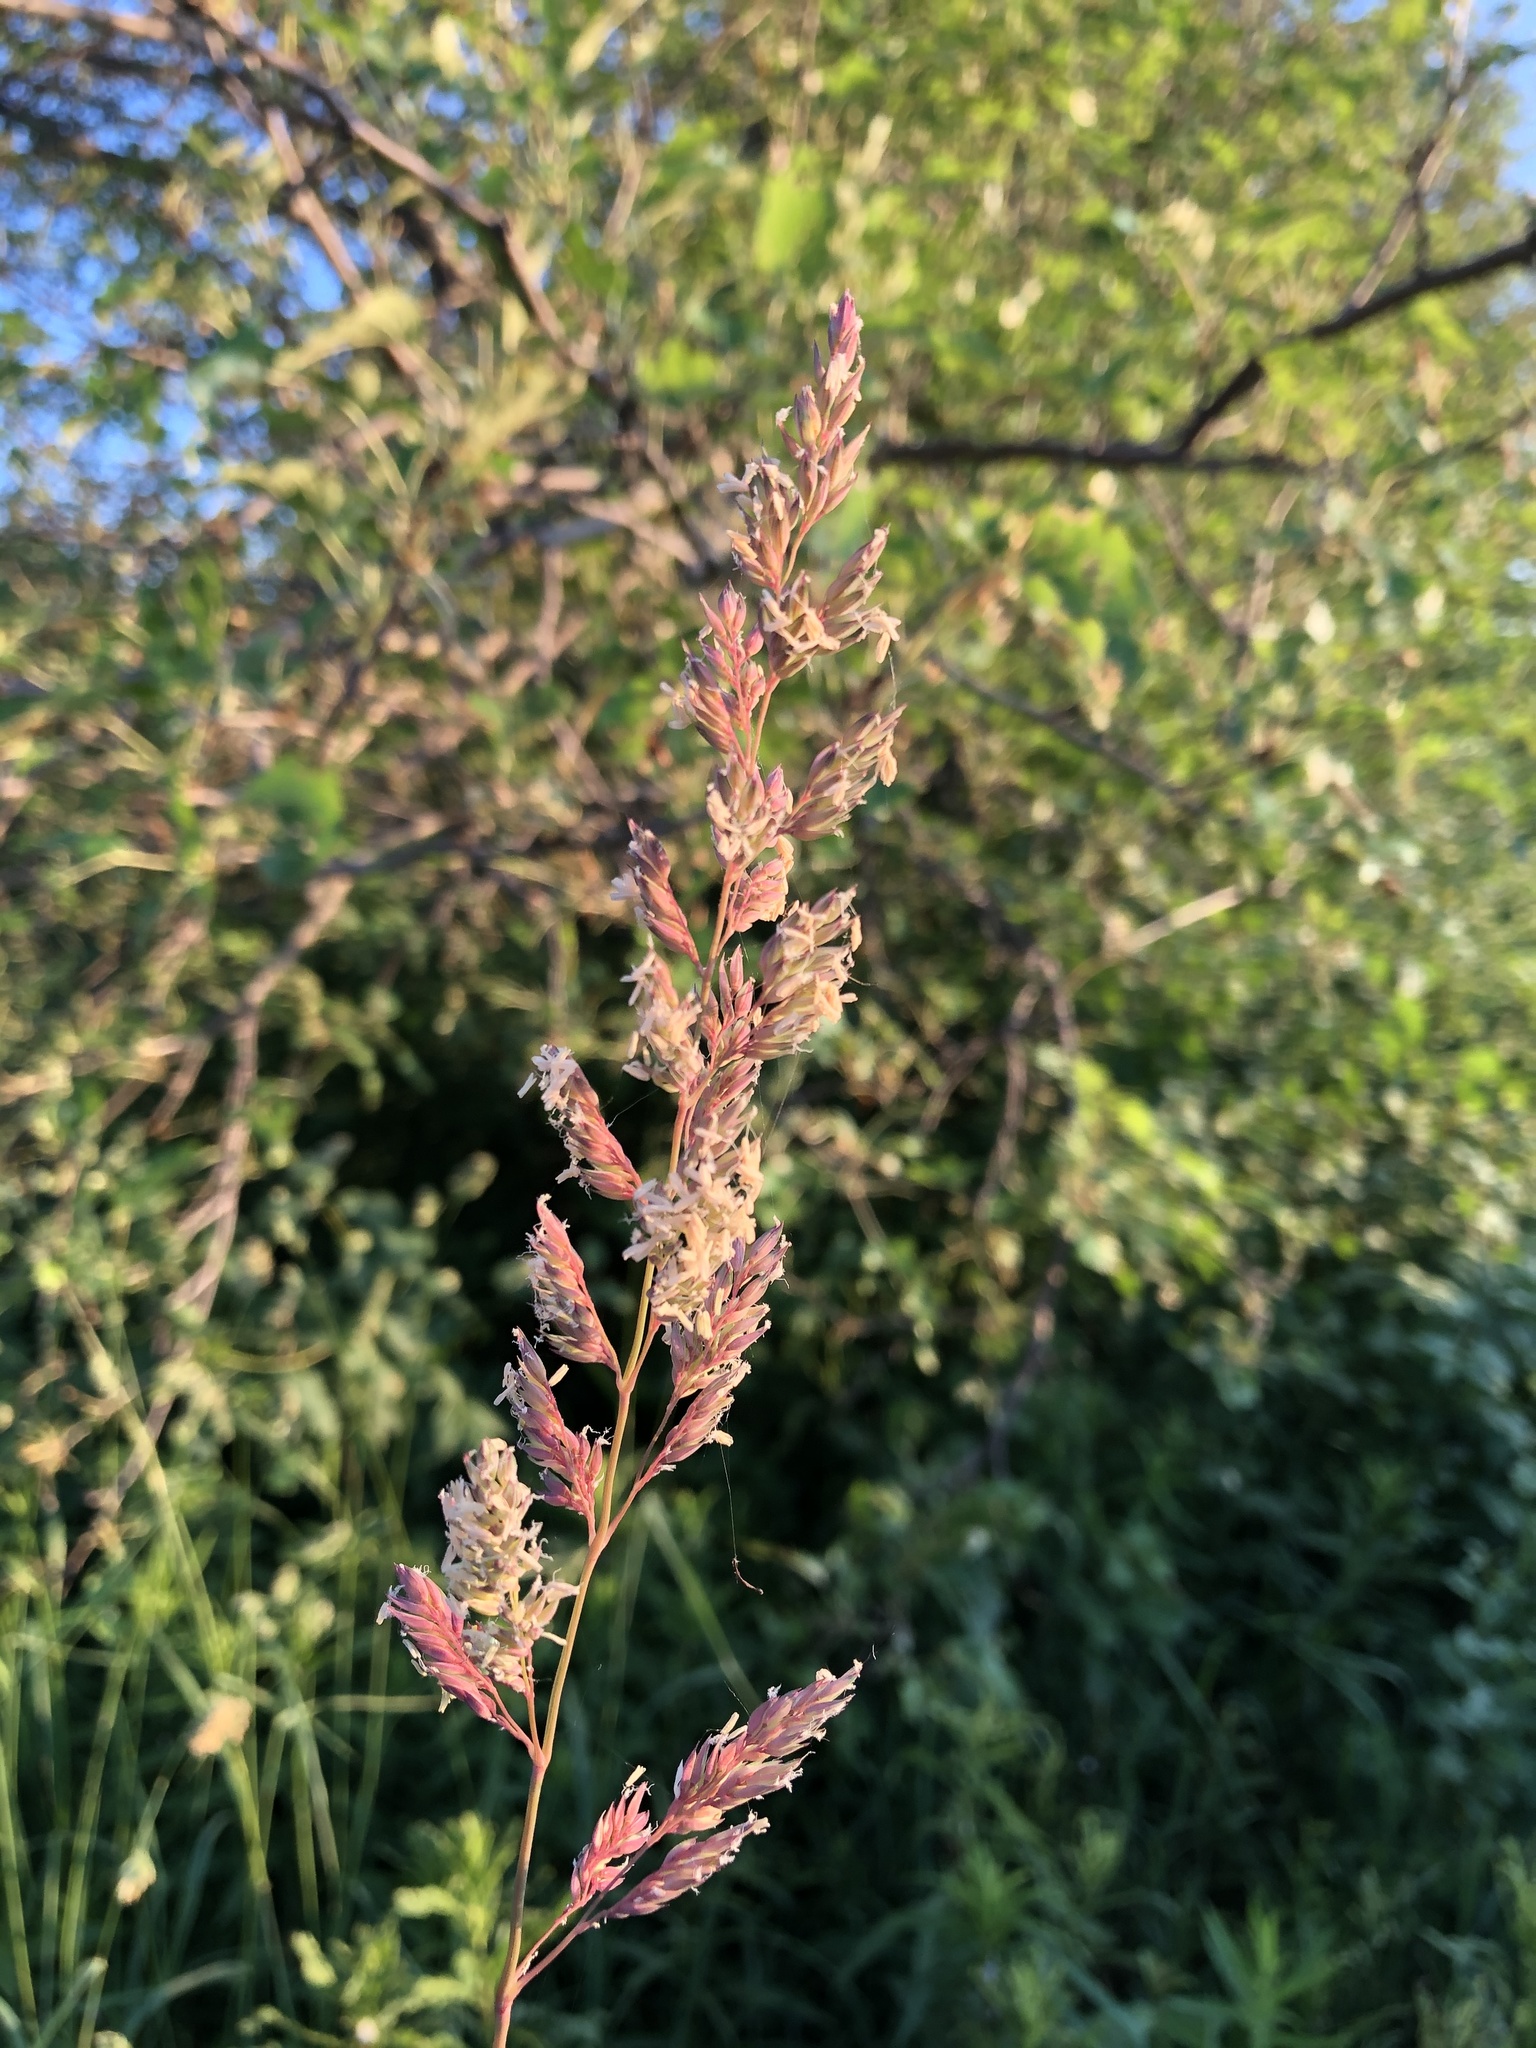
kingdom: Plantae
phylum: Tracheophyta
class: Liliopsida
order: Poales
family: Poaceae
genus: Phalaris
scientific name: Phalaris arundinacea
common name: Reed canary-grass
